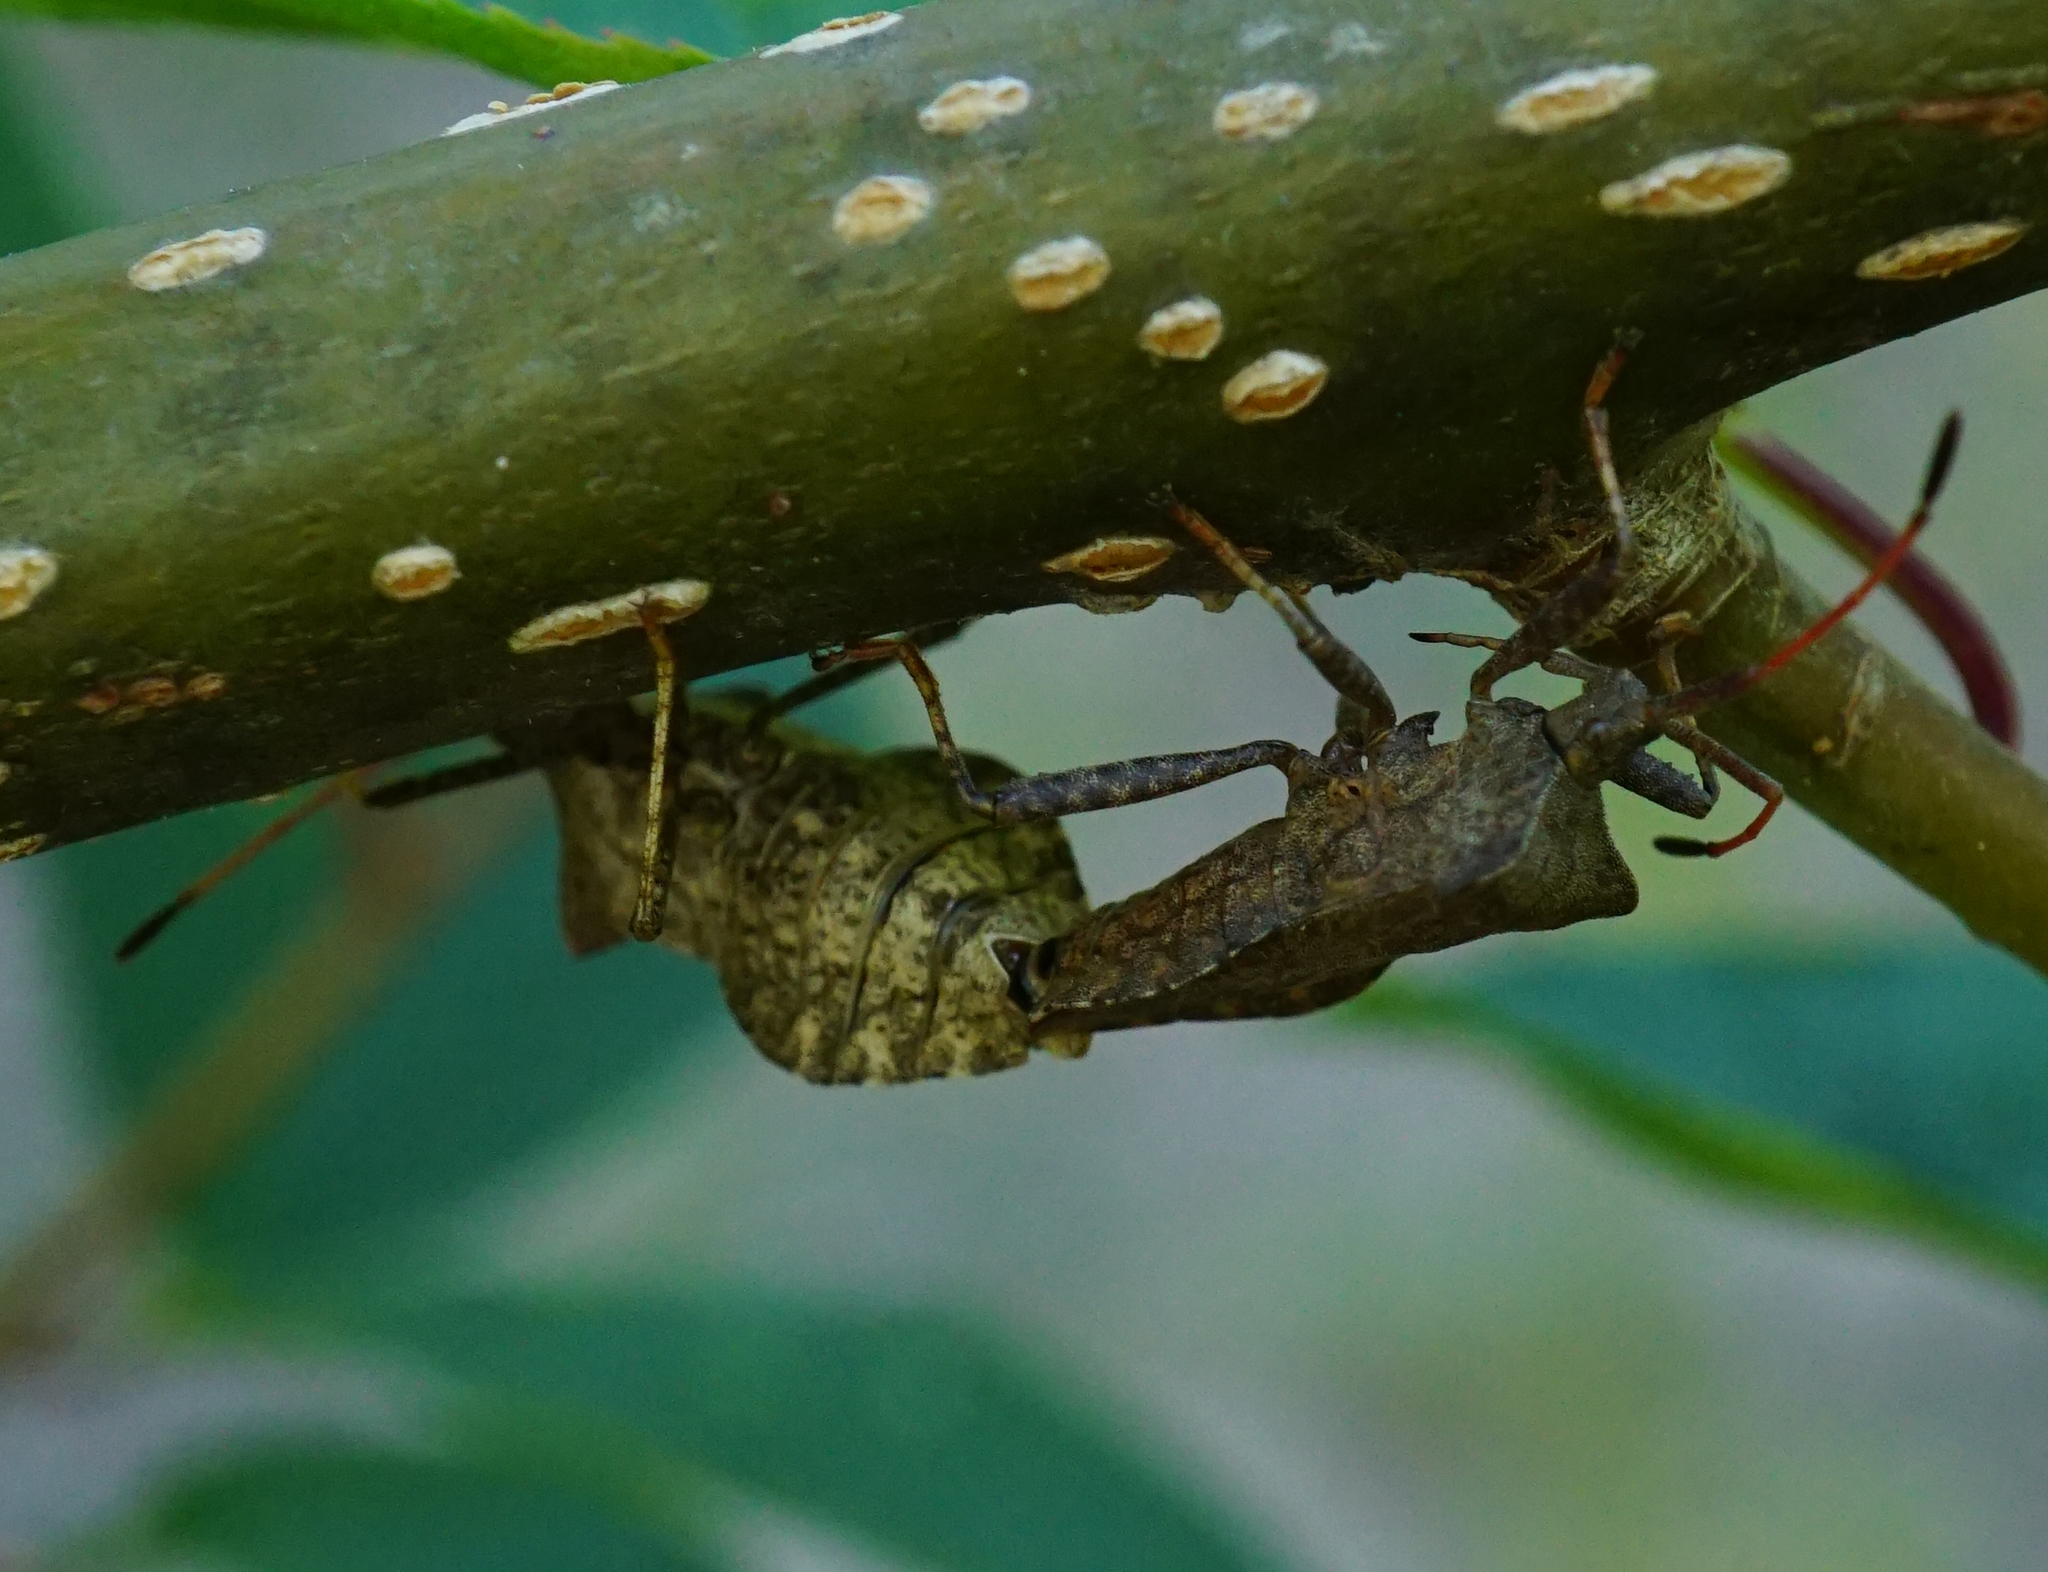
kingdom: Animalia
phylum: Arthropoda
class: Insecta
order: Hemiptera
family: Coreidae
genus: Coreus
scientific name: Coreus marginatus
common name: Dock bug
